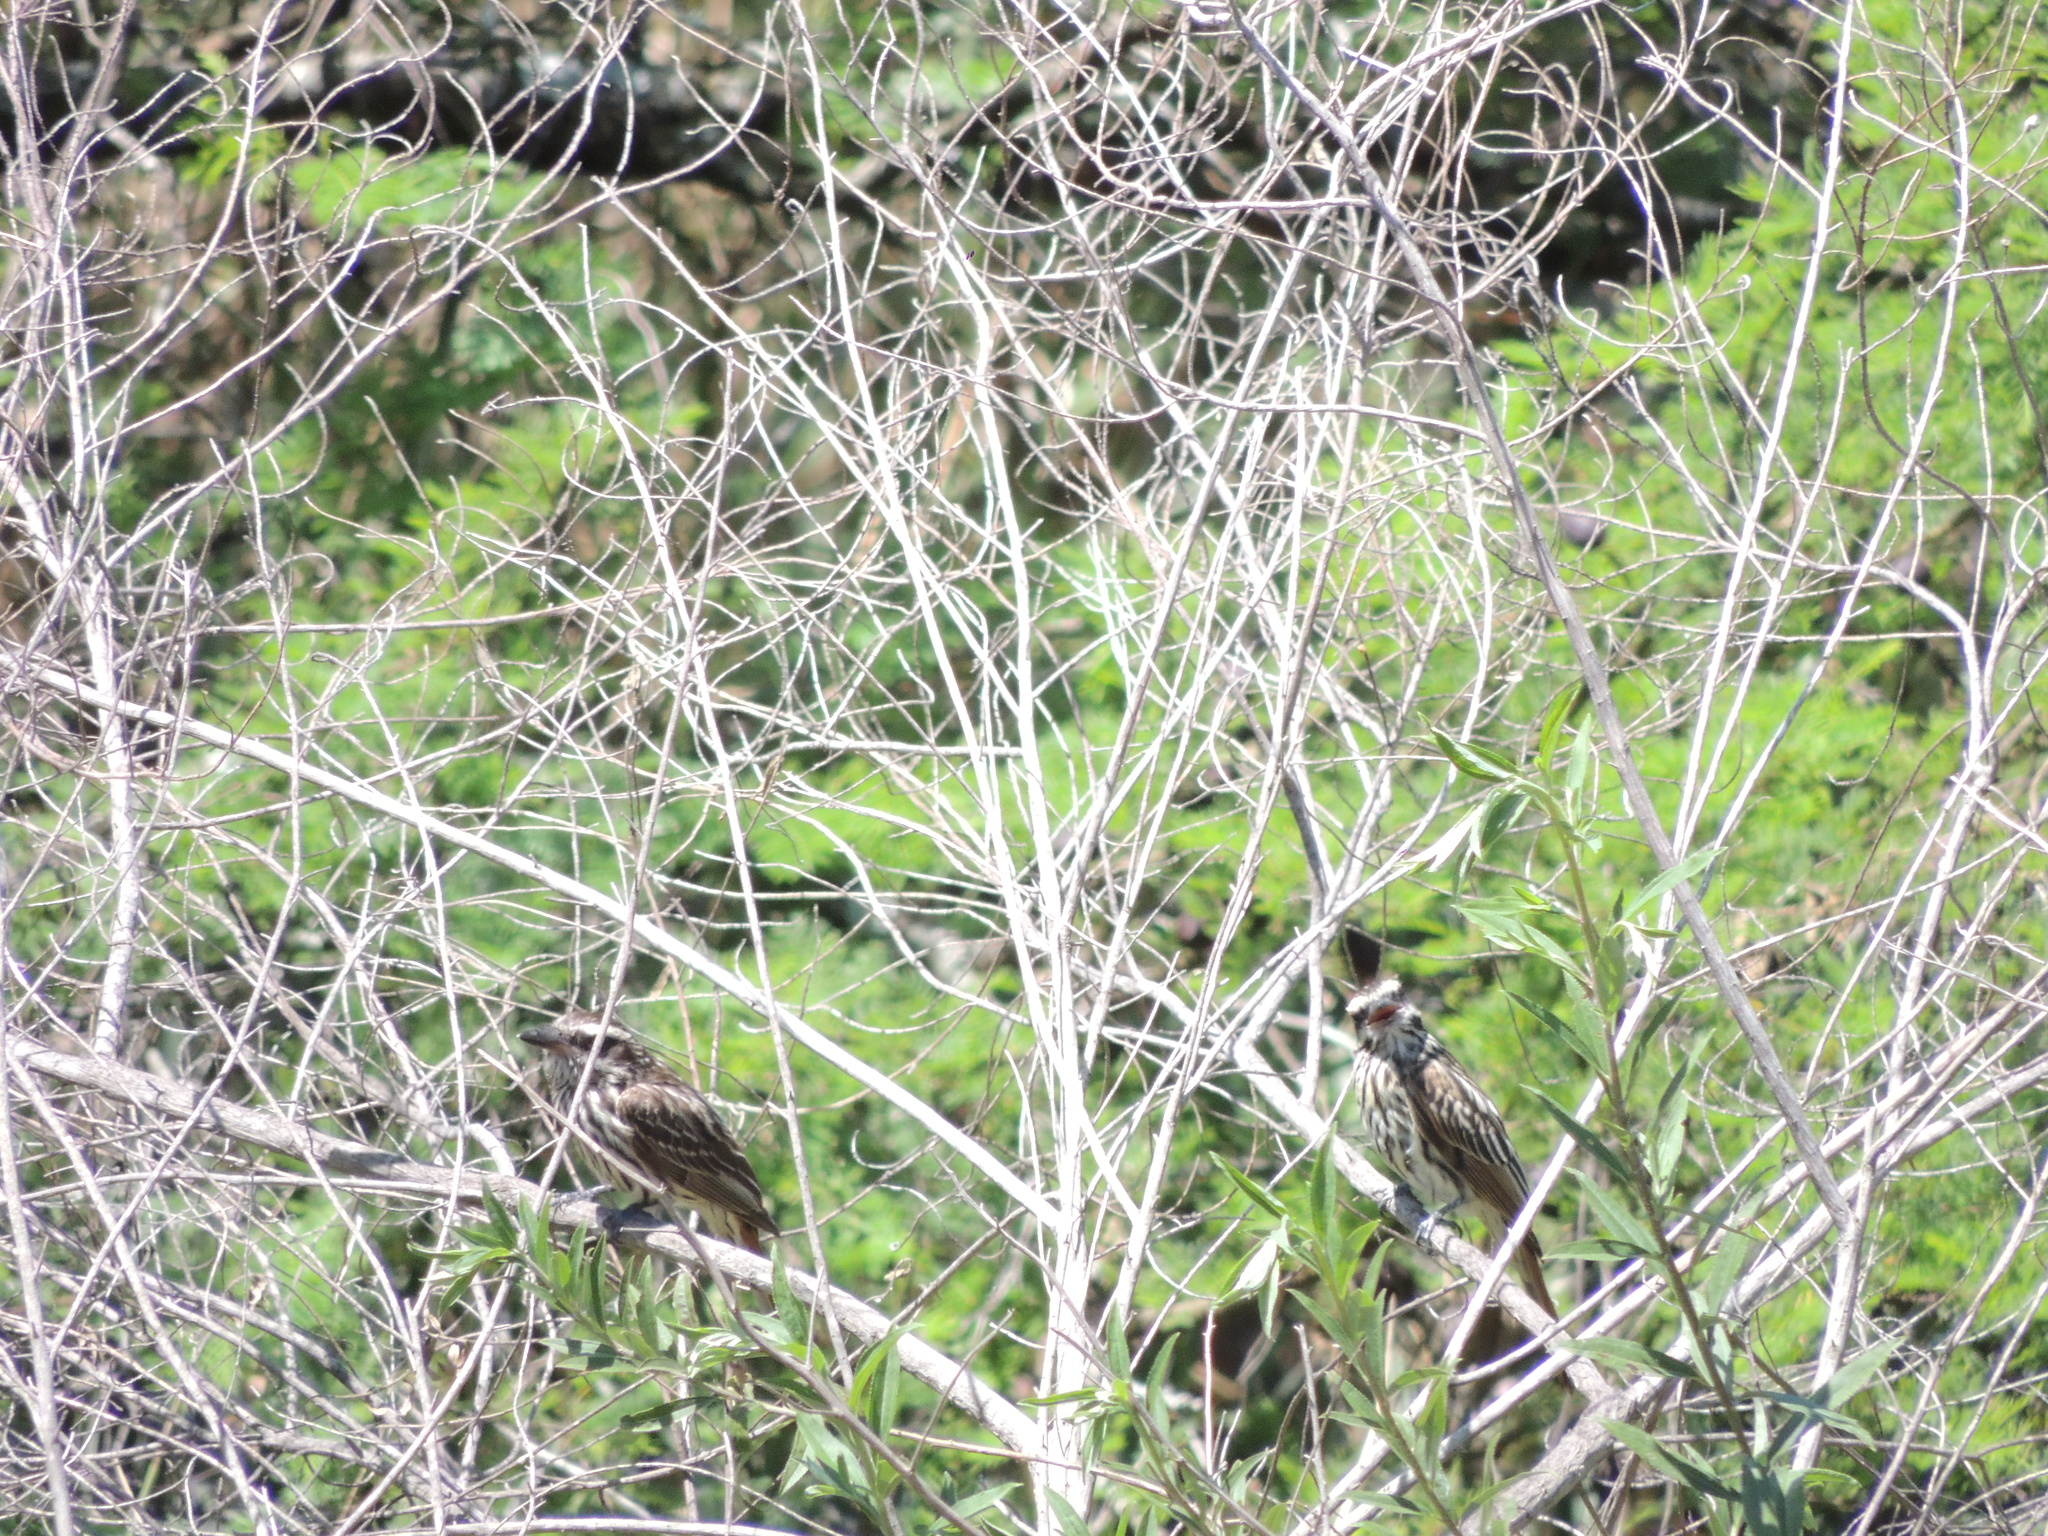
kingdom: Animalia
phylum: Chordata
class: Aves
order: Passeriformes
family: Tyrannidae
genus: Myiodynastes
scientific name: Myiodynastes maculatus
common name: Streaked flycatcher
